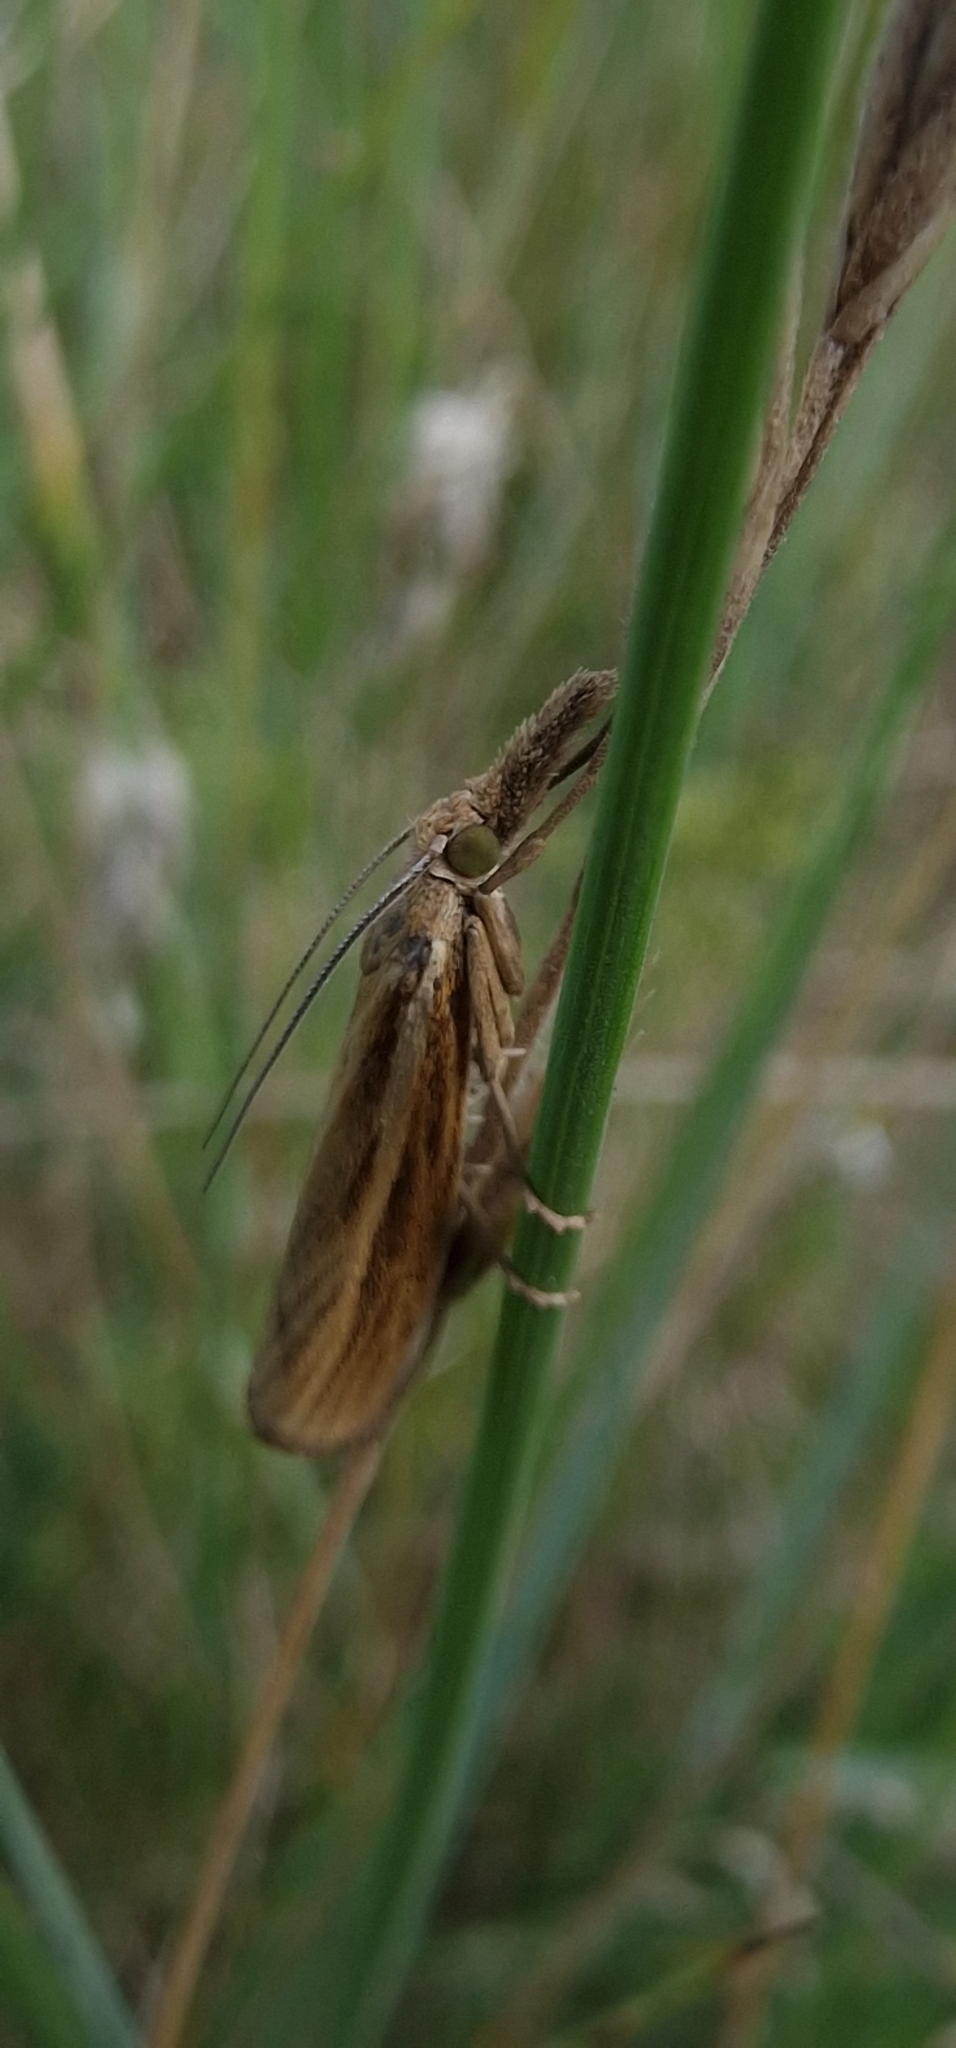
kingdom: Animalia
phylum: Arthropoda
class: Insecta
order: Lepidoptera
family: Crambidae
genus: Agriphila
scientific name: Agriphila tristellus
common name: Common grass-veneer
